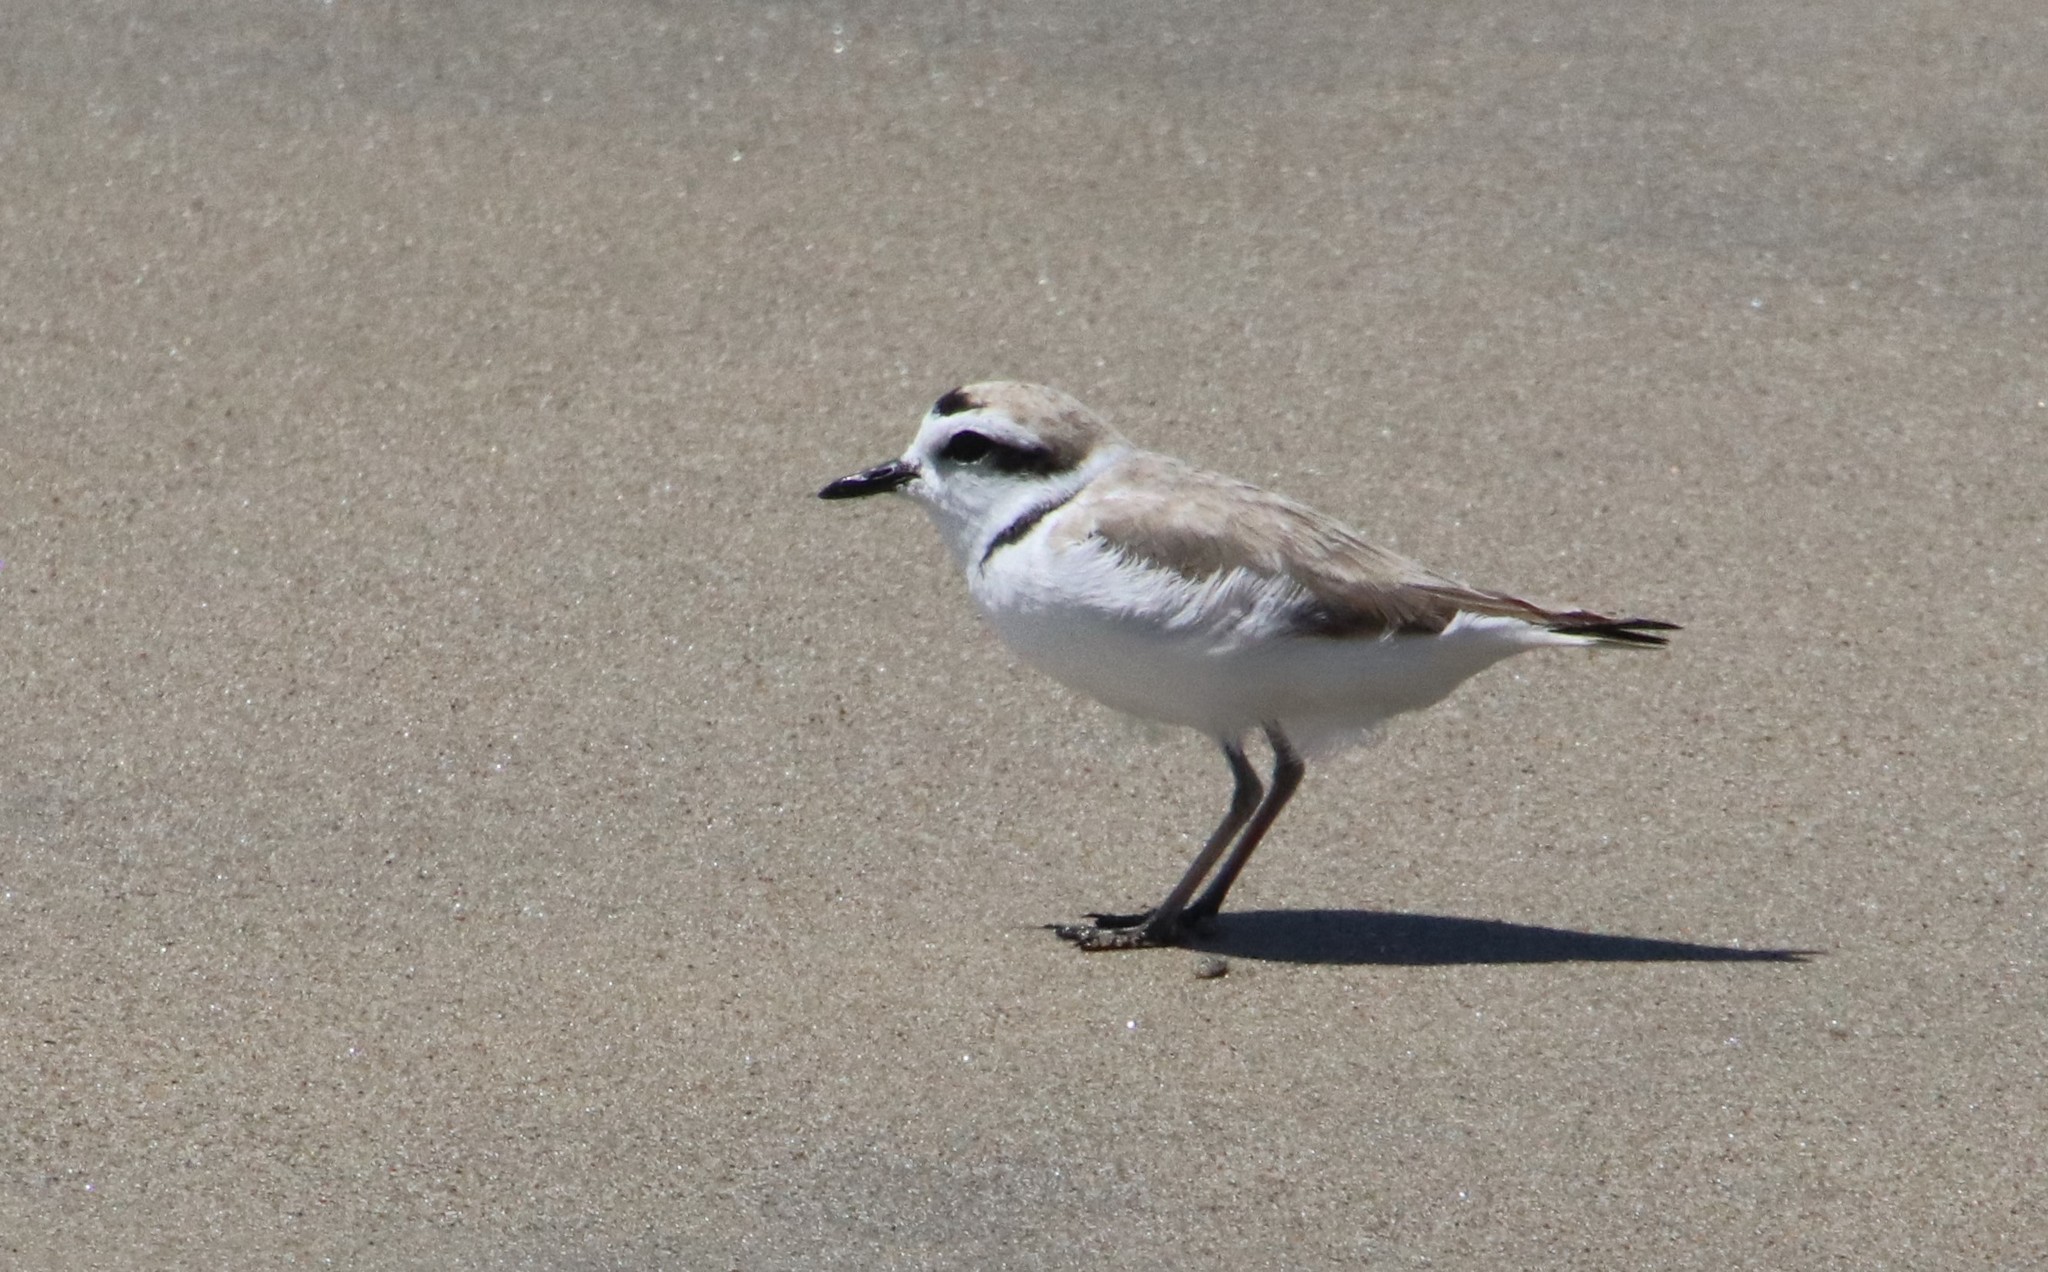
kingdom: Animalia
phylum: Chordata
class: Aves
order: Charadriiformes
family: Charadriidae
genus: Anarhynchus
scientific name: Anarhynchus
